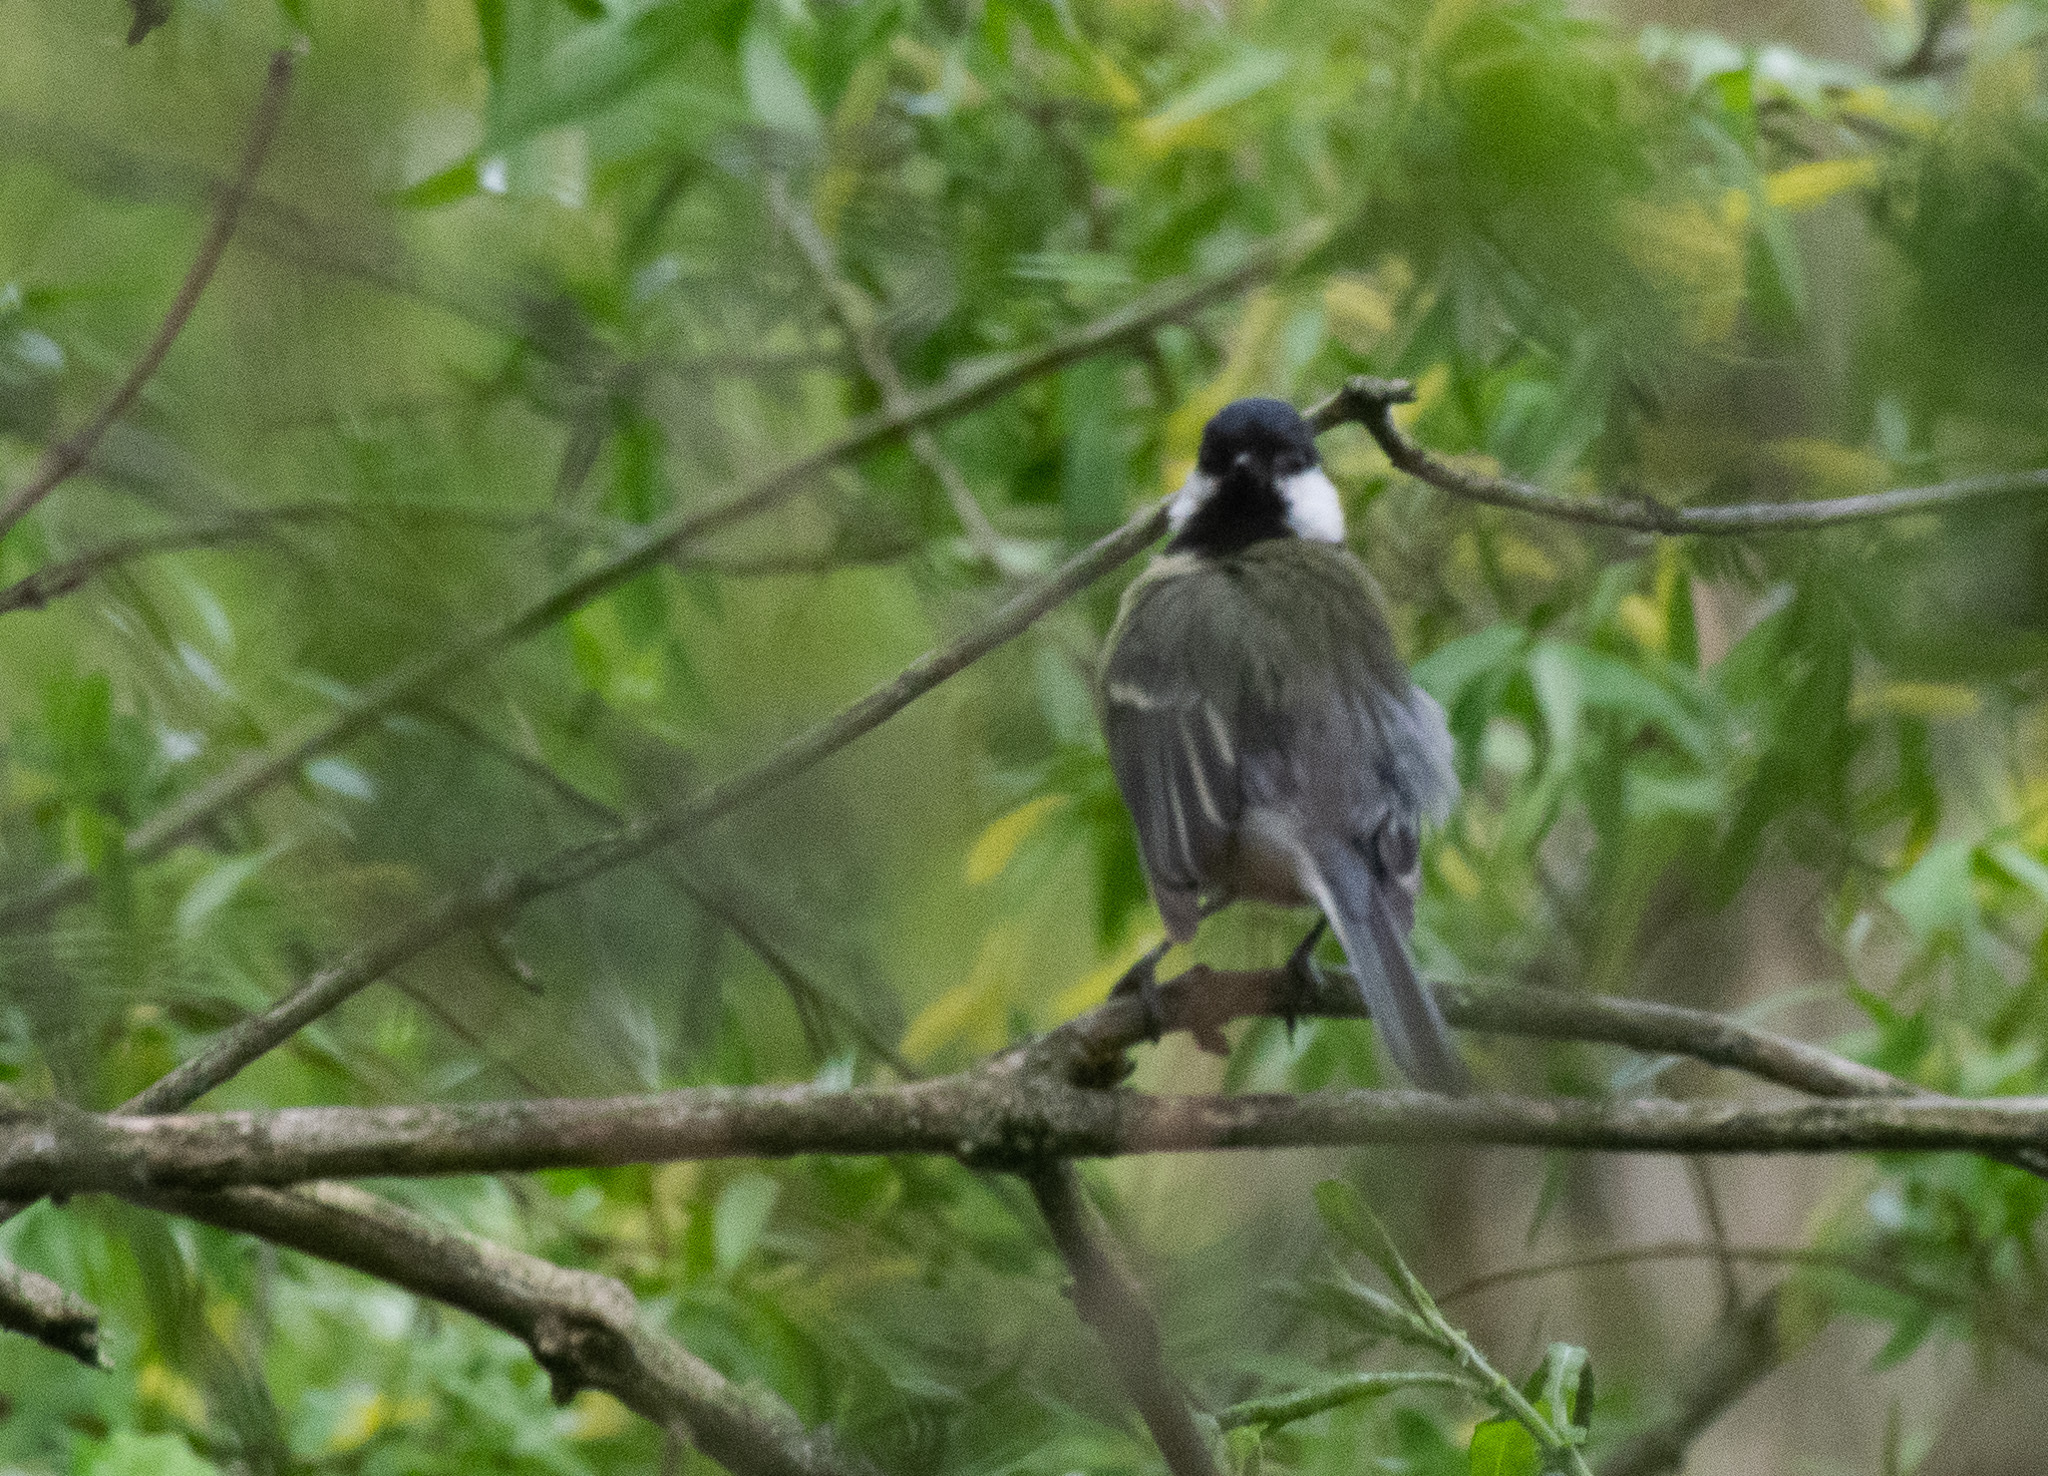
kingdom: Animalia
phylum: Chordata
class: Aves
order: Passeriformes
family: Paridae
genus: Parus
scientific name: Parus major
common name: Great tit
